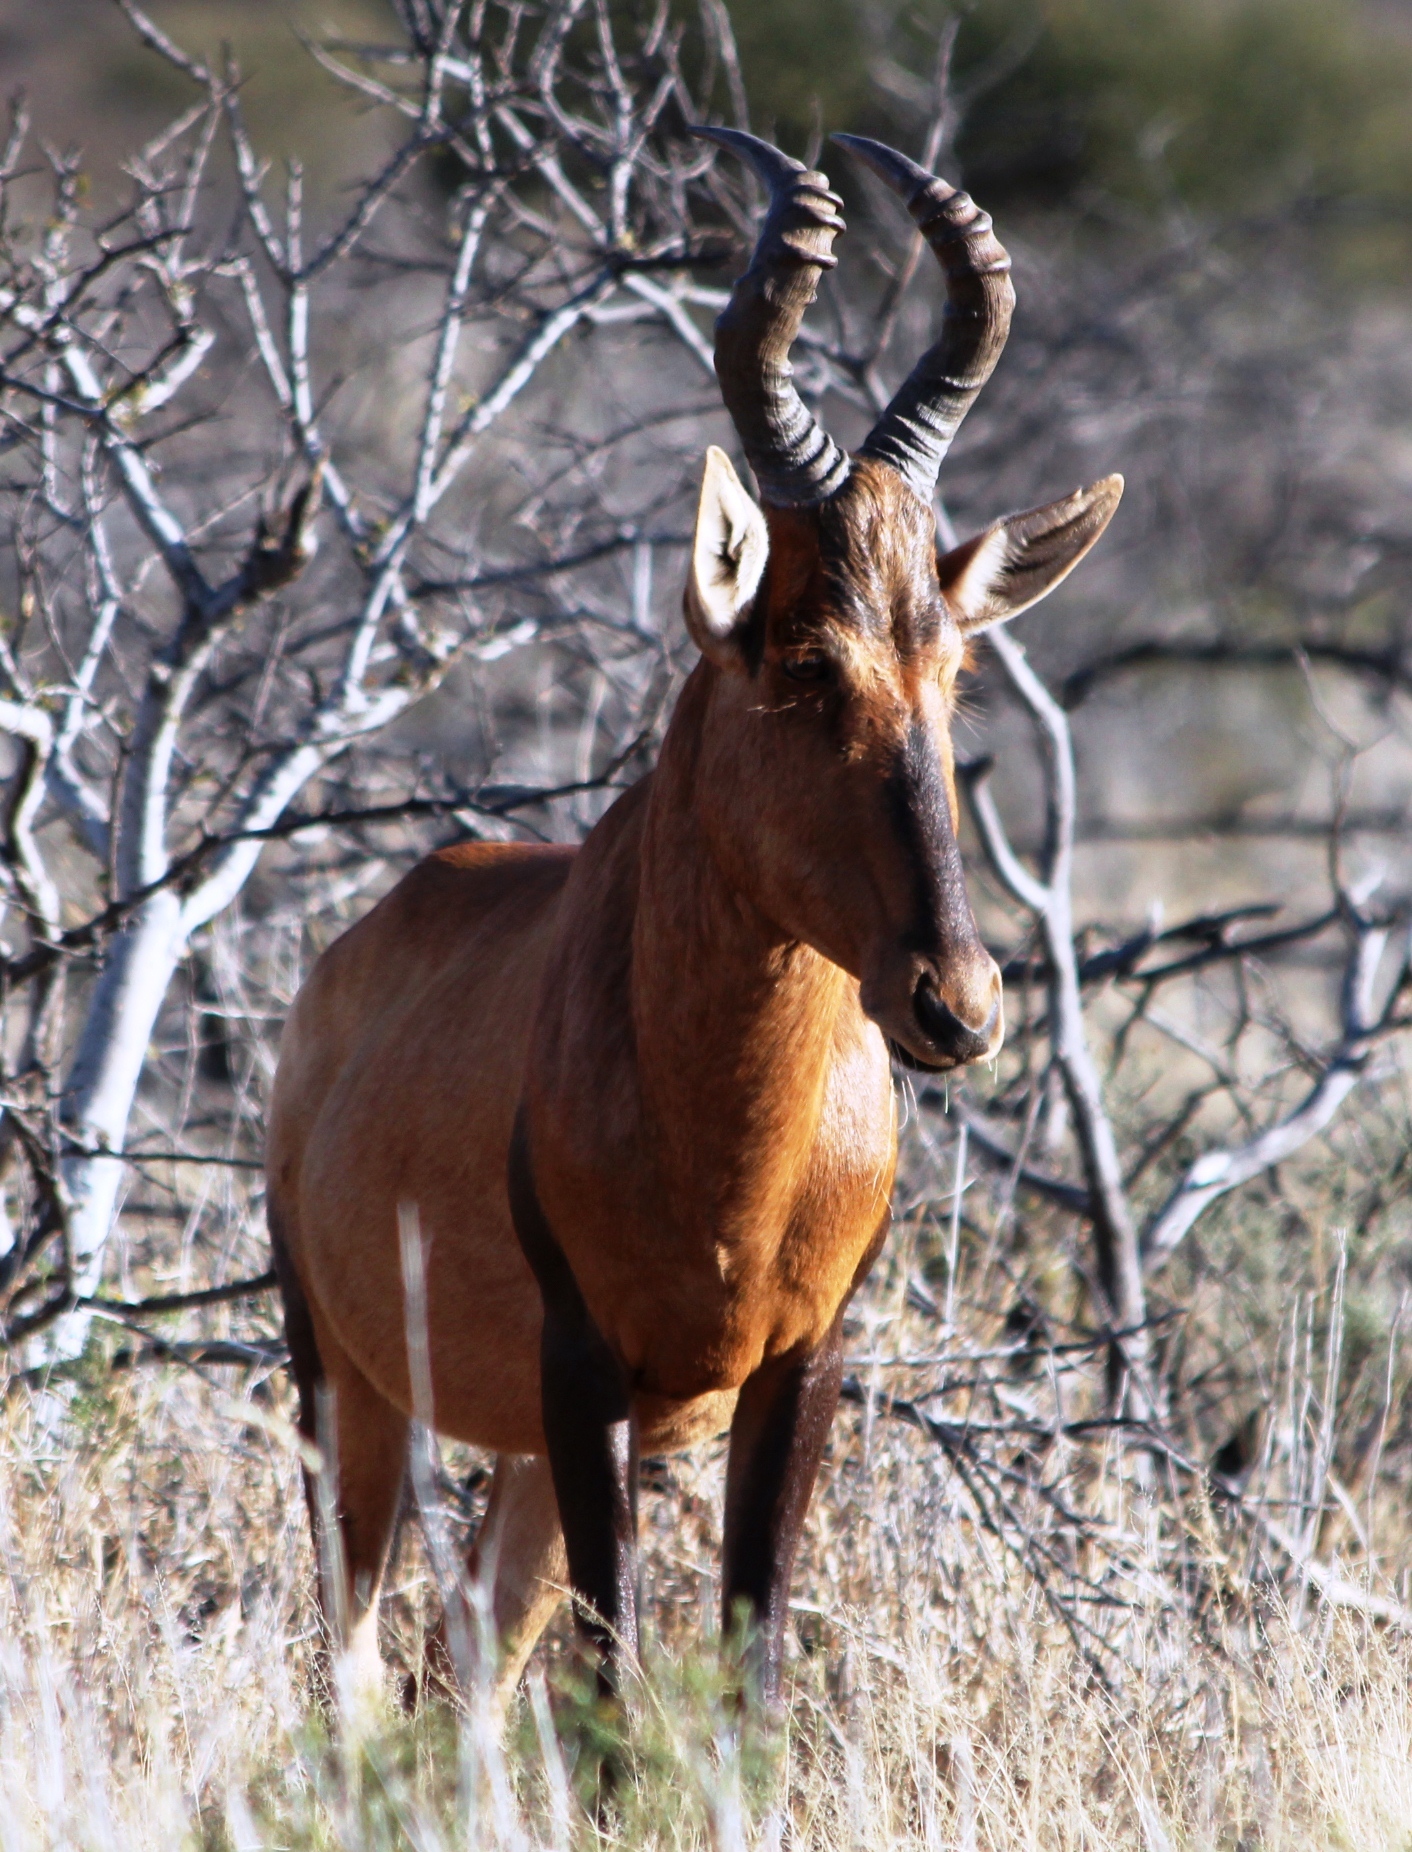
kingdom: Animalia
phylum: Chordata
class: Mammalia
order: Artiodactyla
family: Bovidae
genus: Alcelaphus
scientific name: Alcelaphus caama
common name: Red hartebeest
